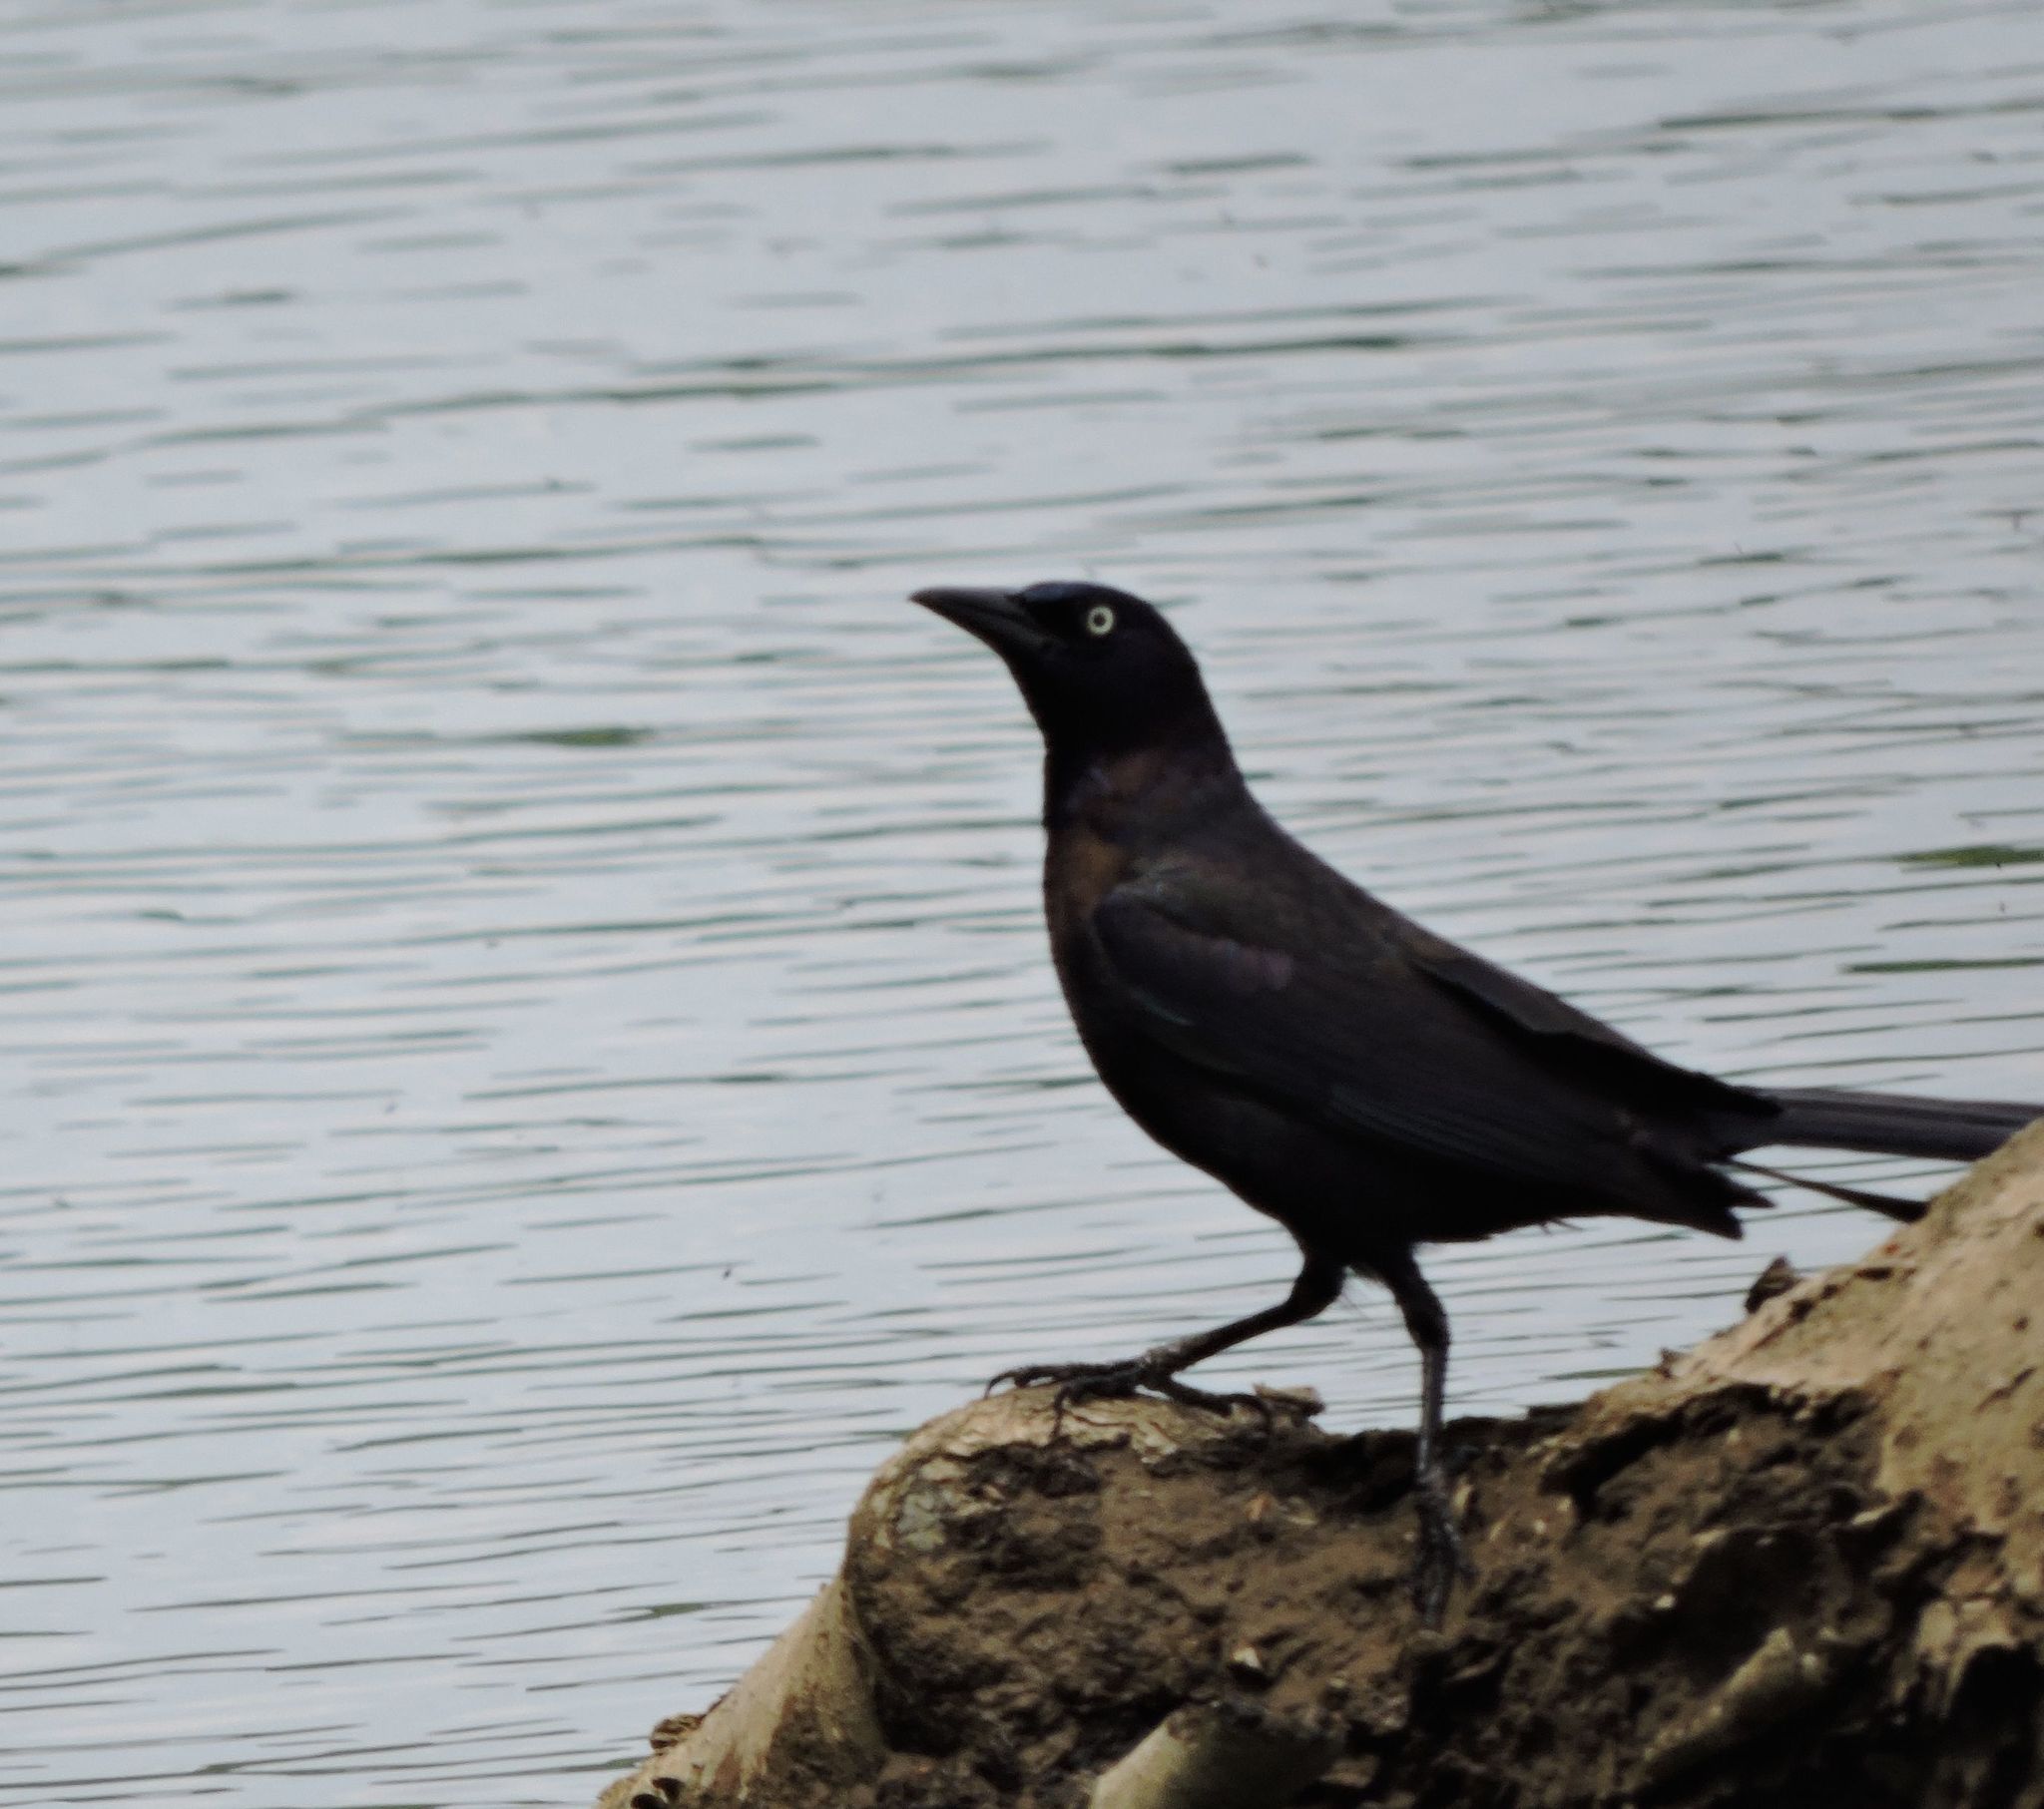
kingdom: Animalia
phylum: Chordata
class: Aves
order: Passeriformes
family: Icteridae
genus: Quiscalus
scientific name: Quiscalus quiscula
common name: Common grackle
